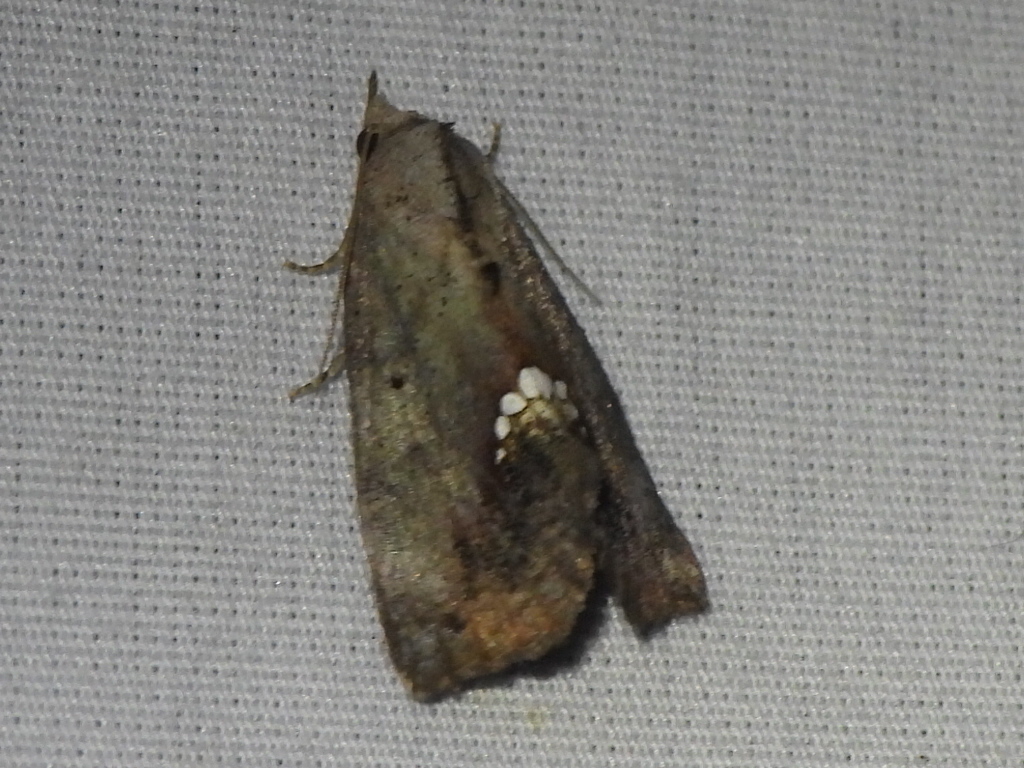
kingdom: Animalia
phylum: Arthropoda
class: Insecta
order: Lepidoptera
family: Erebidae
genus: Hypsoropha
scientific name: Hypsoropha hormos
